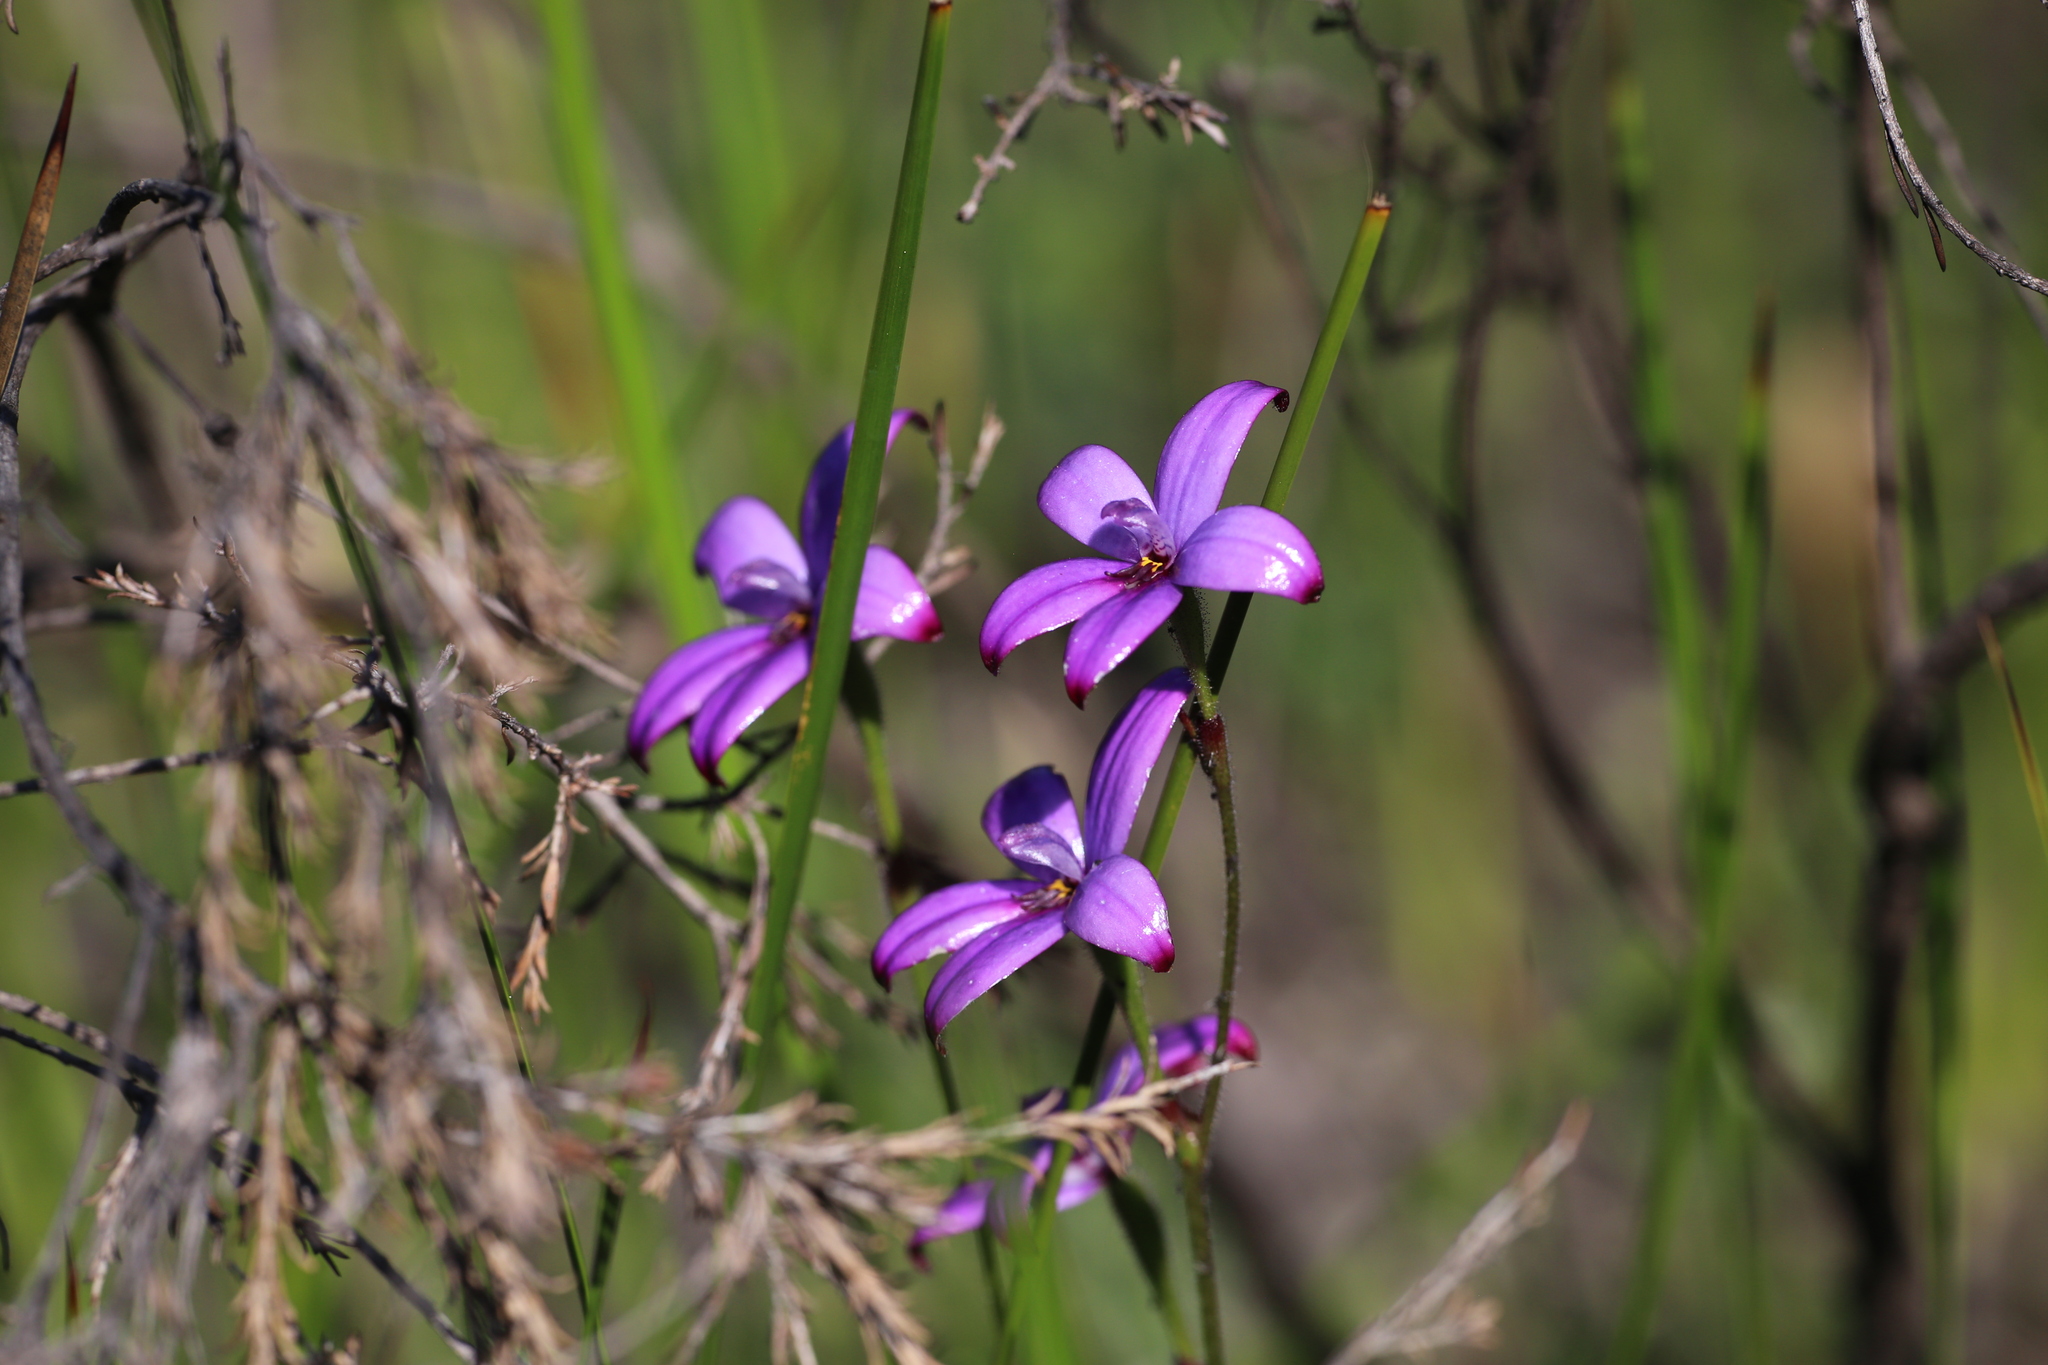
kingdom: Plantae
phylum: Tracheophyta
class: Liliopsida
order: Asparagales
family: Orchidaceae
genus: Caladenia
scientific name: Caladenia brunonis
